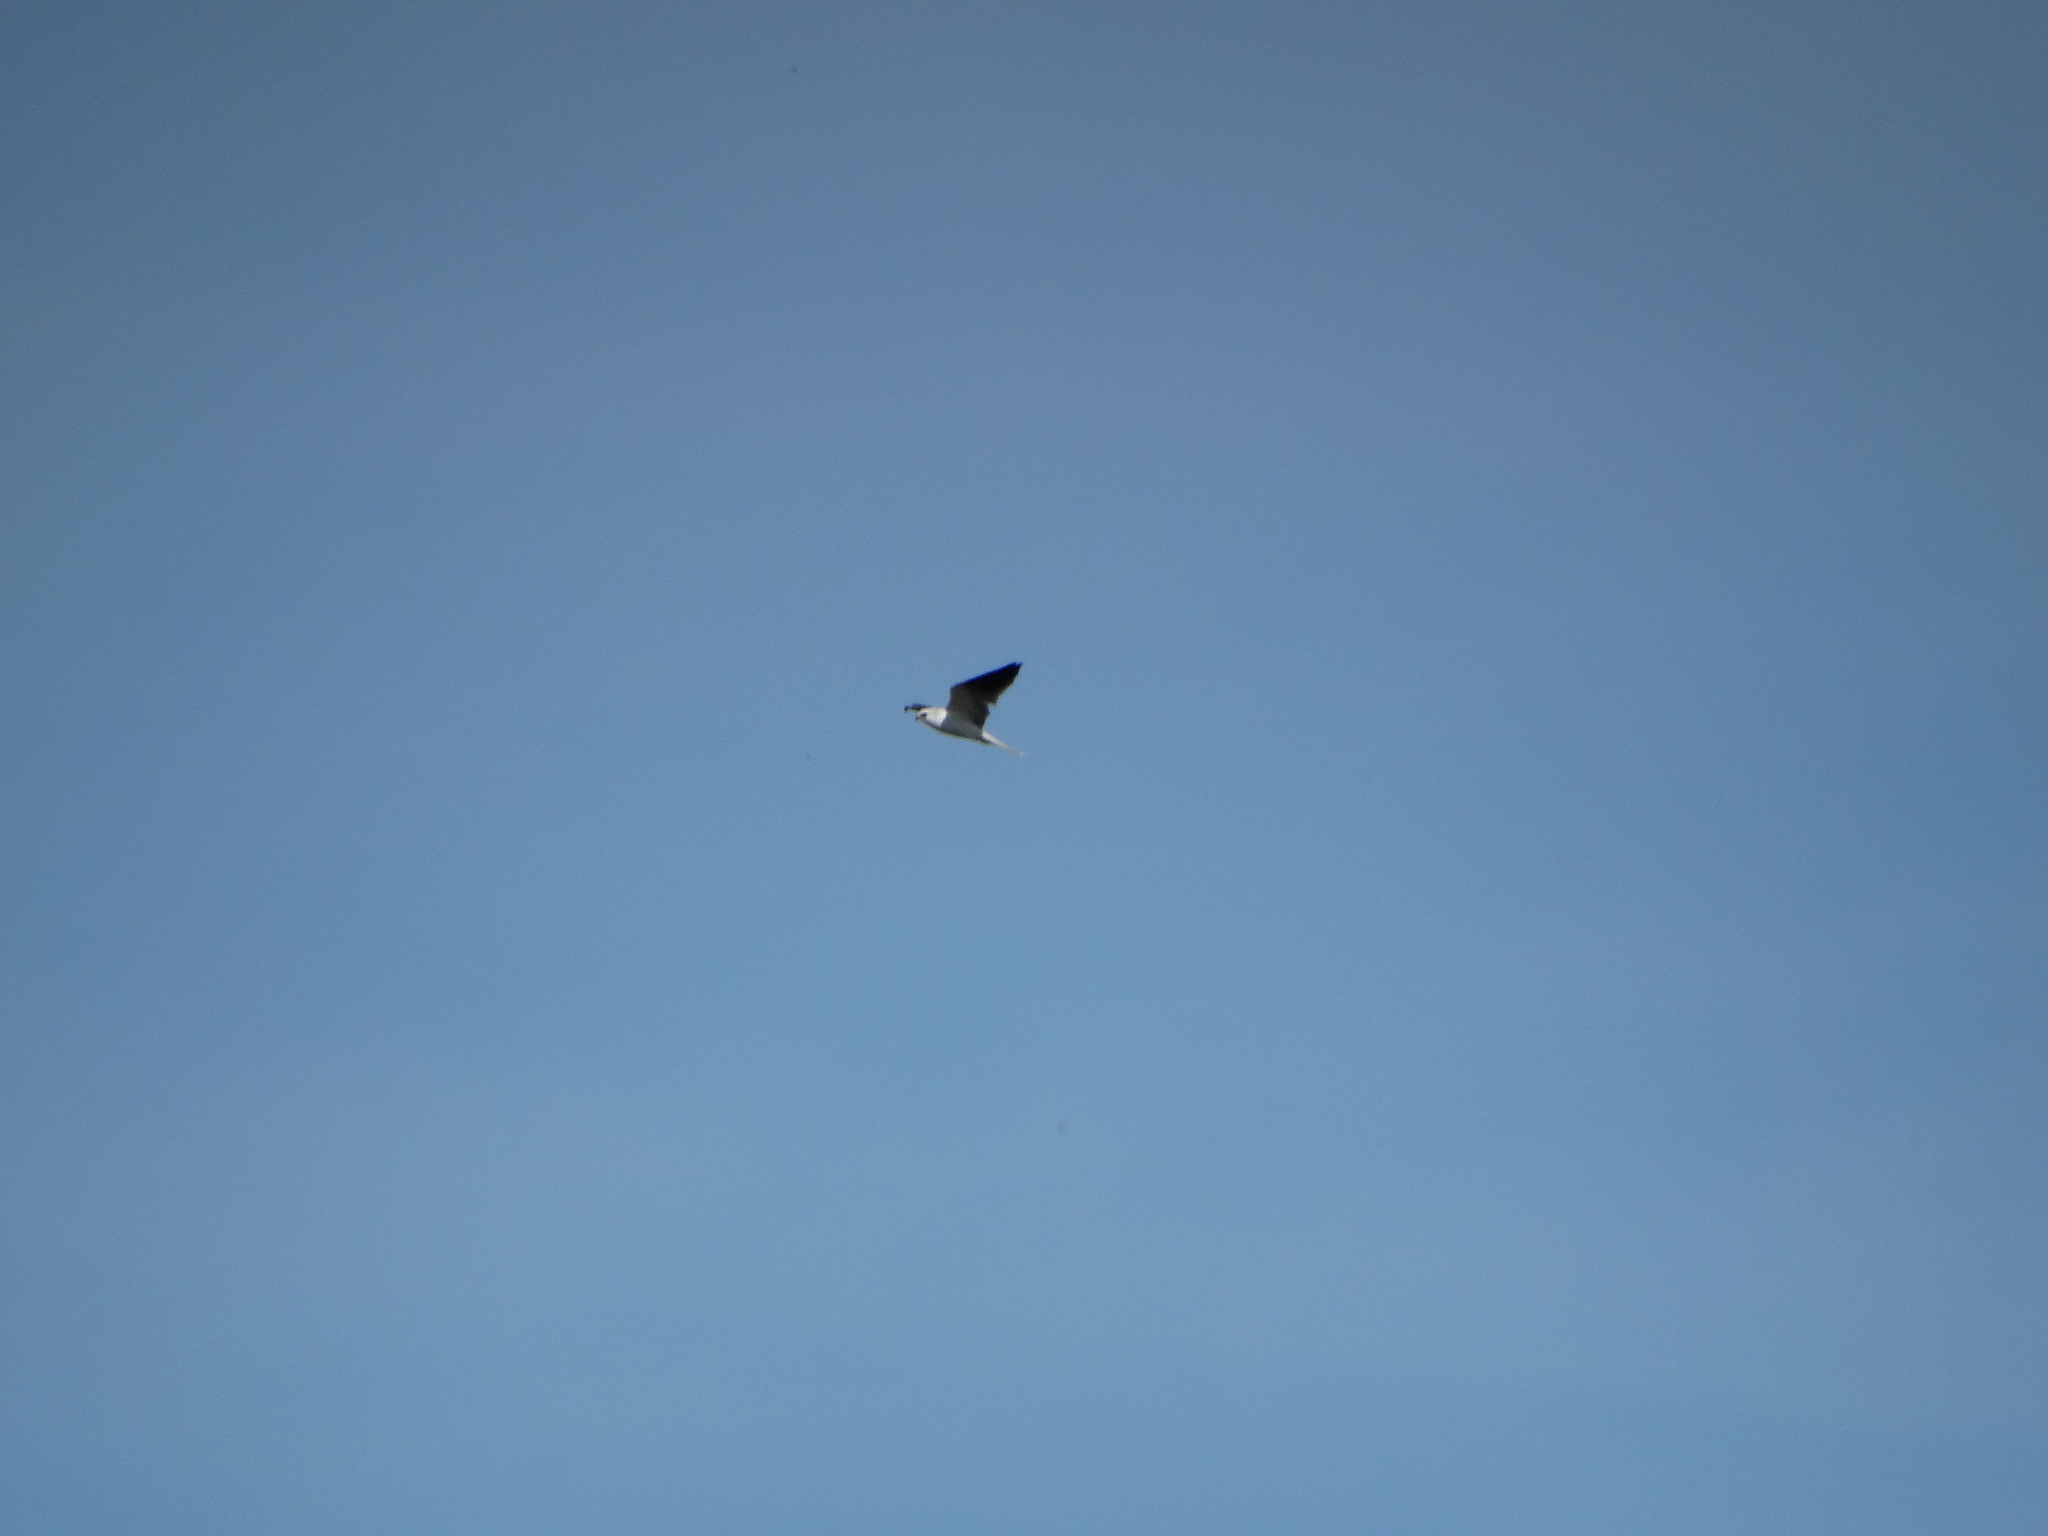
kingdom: Animalia
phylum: Chordata
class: Aves
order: Accipitriformes
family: Accipitridae
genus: Elanus
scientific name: Elanus leucurus
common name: White-tailed kite
